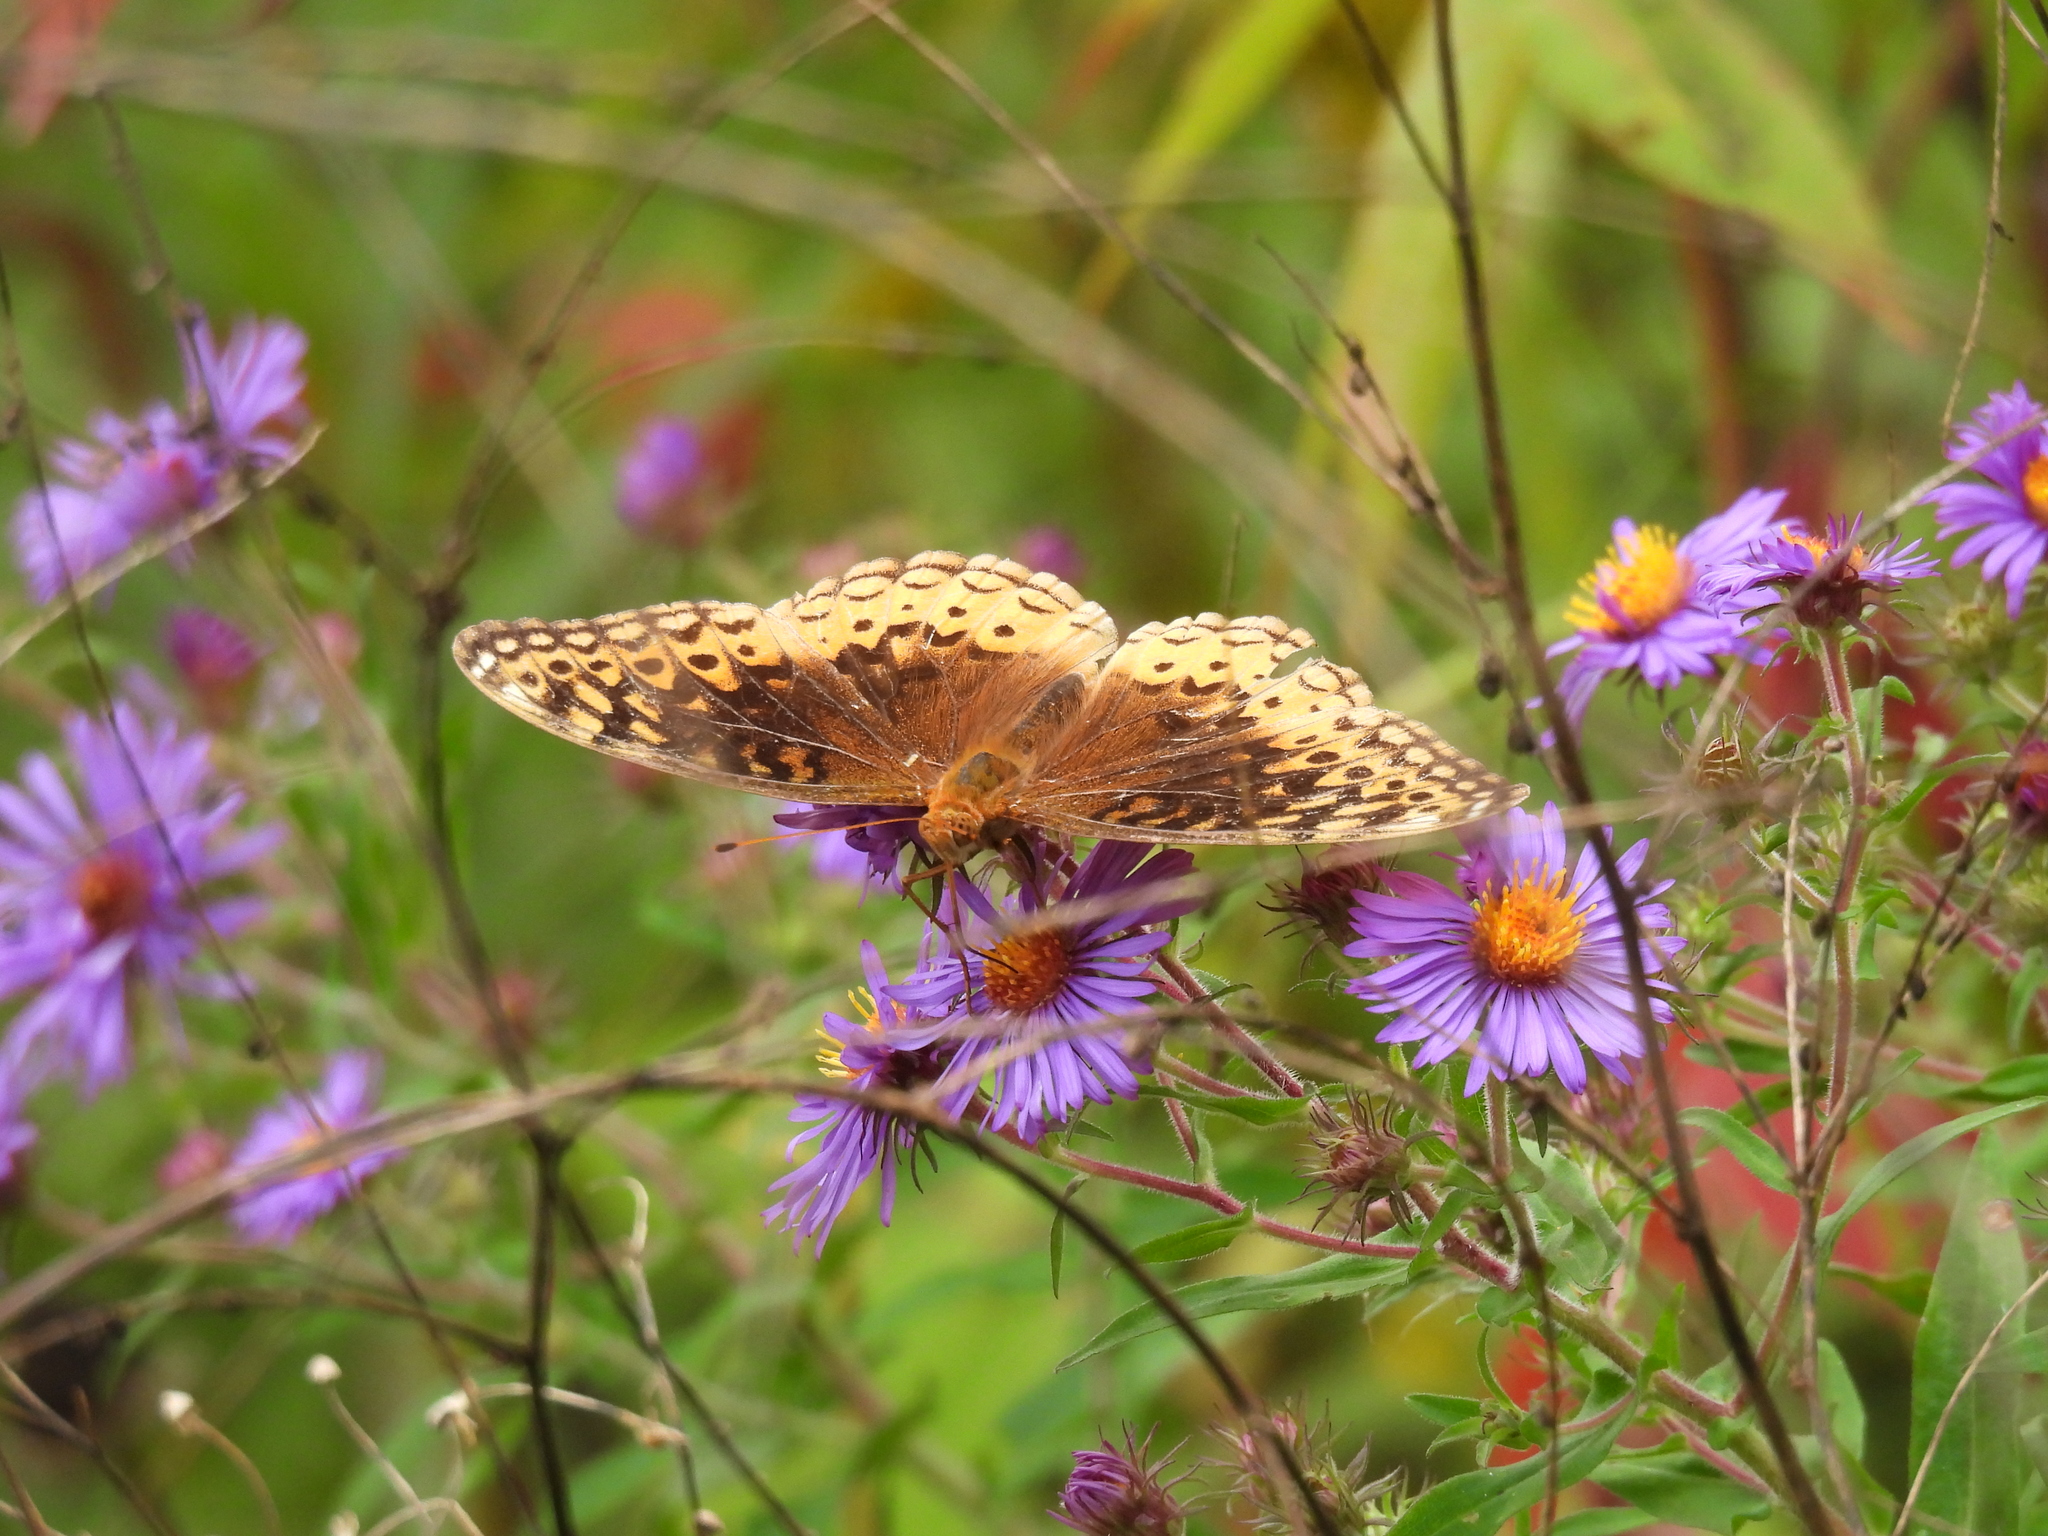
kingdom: Animalia
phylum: Arthropoda
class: Insecta
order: Lepidoptera
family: Nymphalidae
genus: Speyeria
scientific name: Speyeria cybele
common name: Great spangled fritillary
